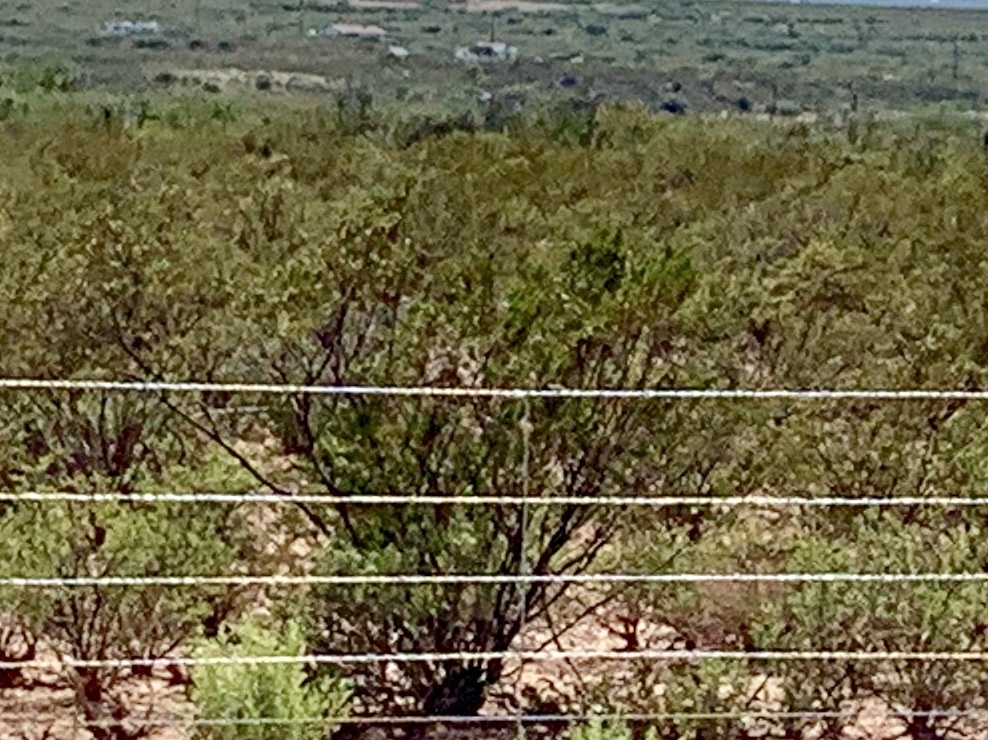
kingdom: Plantae
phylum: Tracheophyta
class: Magnoliopsida
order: Zygophyllales
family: Zygophyllaceae
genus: Larrea
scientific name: Larrea tridentata
